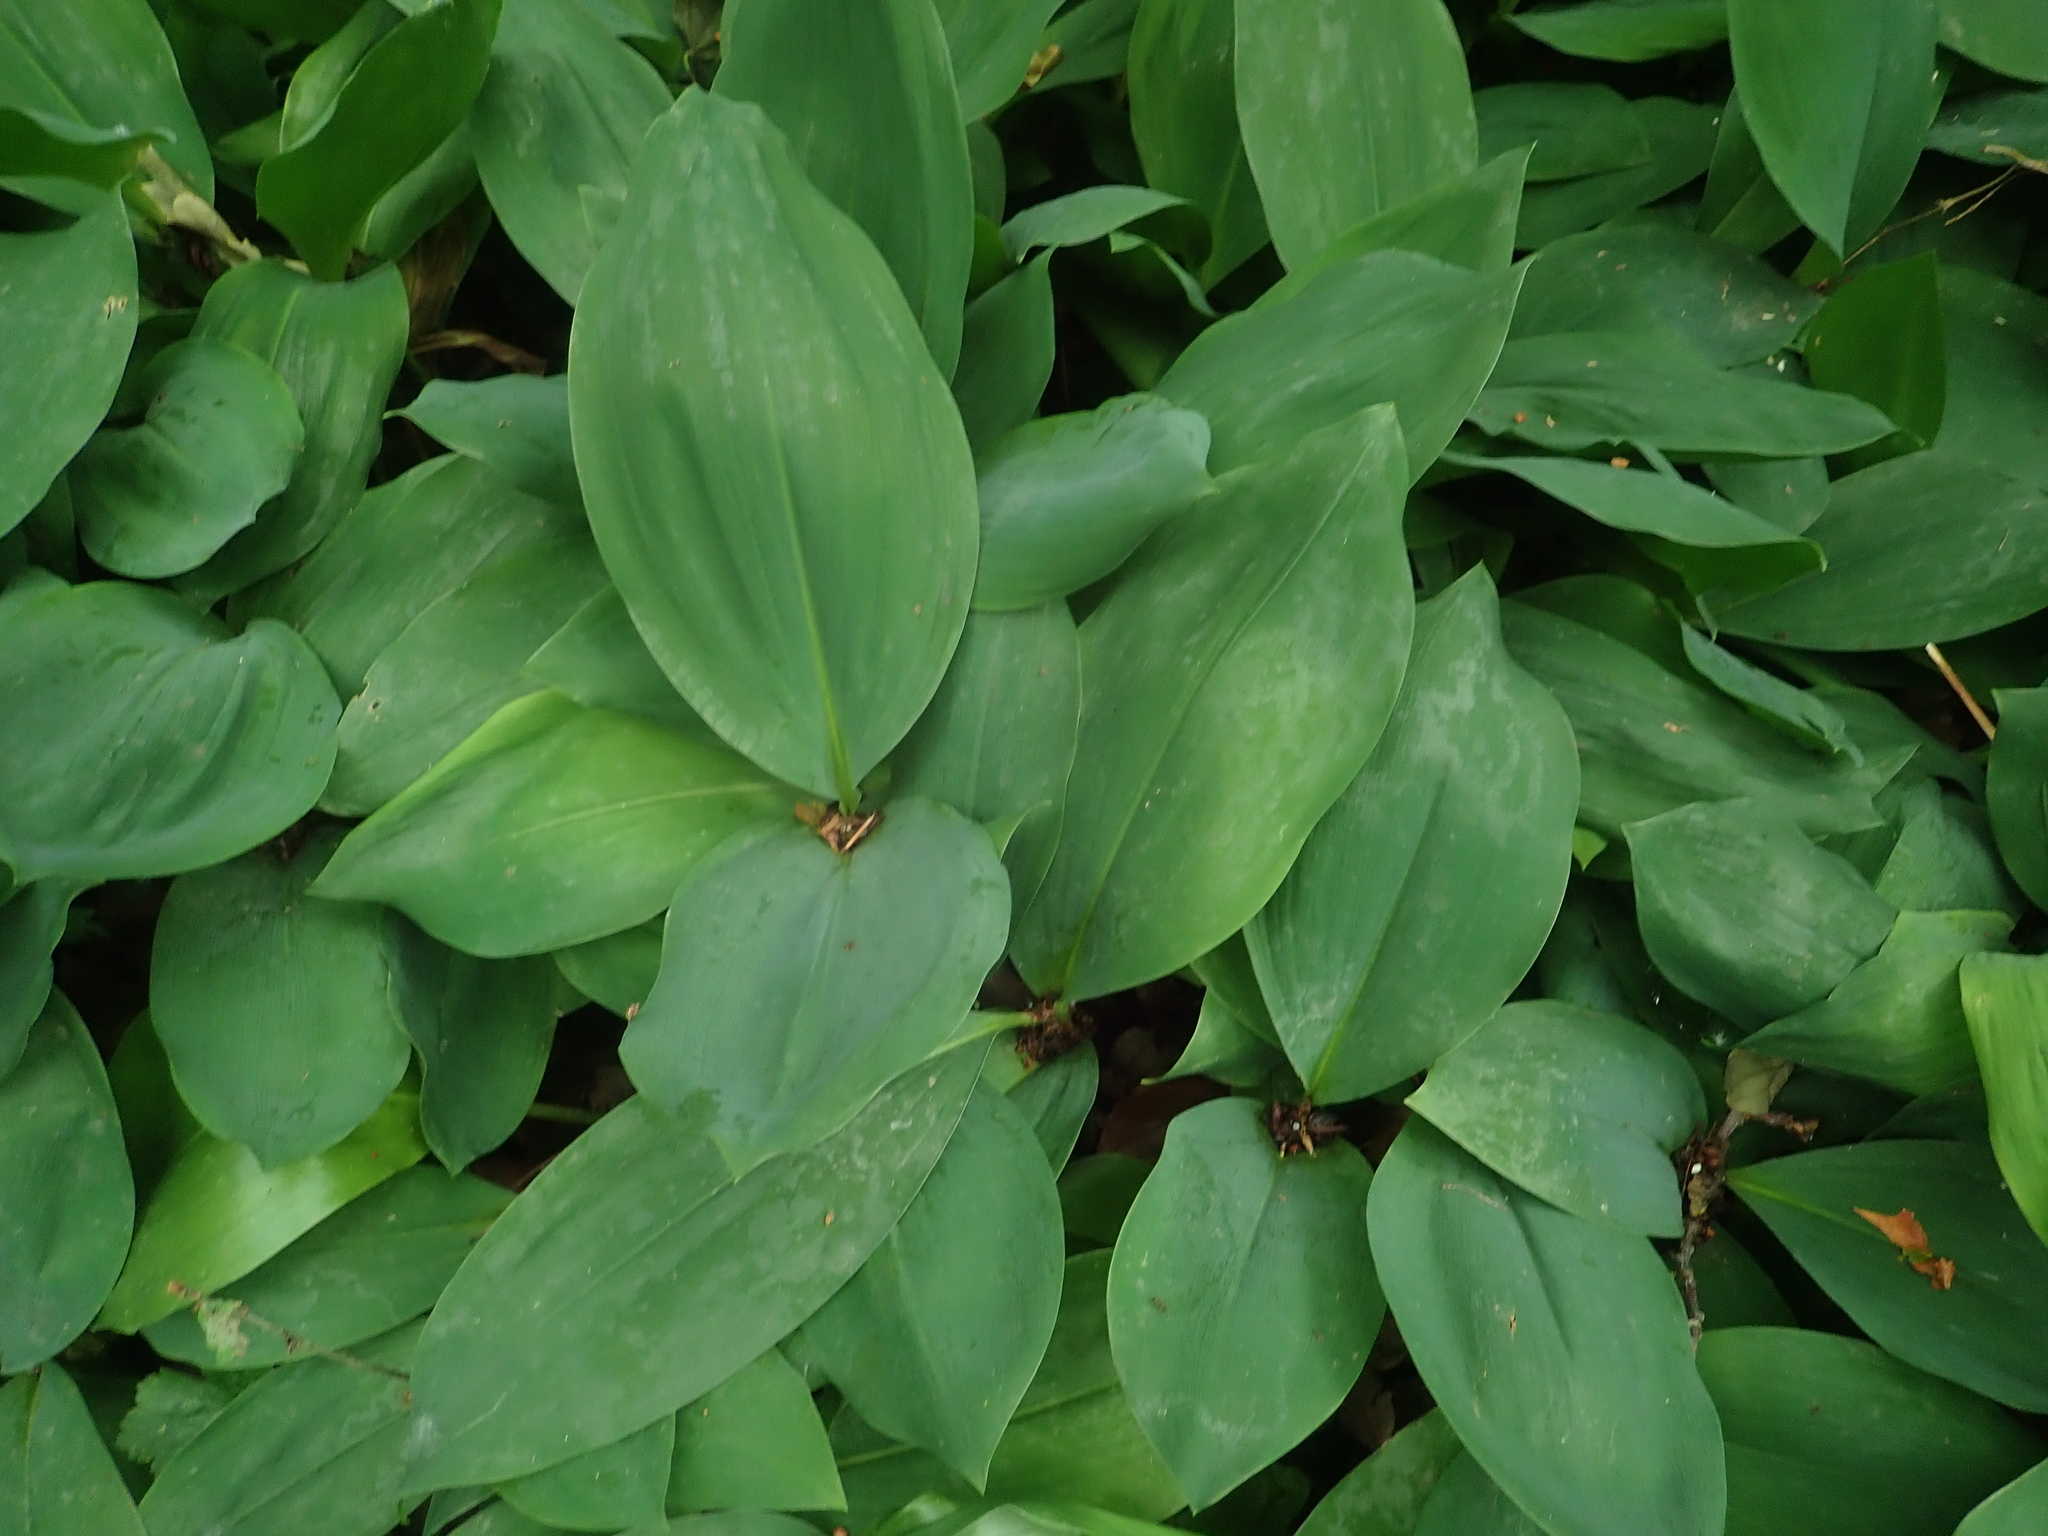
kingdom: Plantae
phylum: Tracheophyta
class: Liliopsida
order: Asparagales
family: Asparagaceae
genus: Convallaria
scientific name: Convallaria majalis
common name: Lily-of-the-valley
